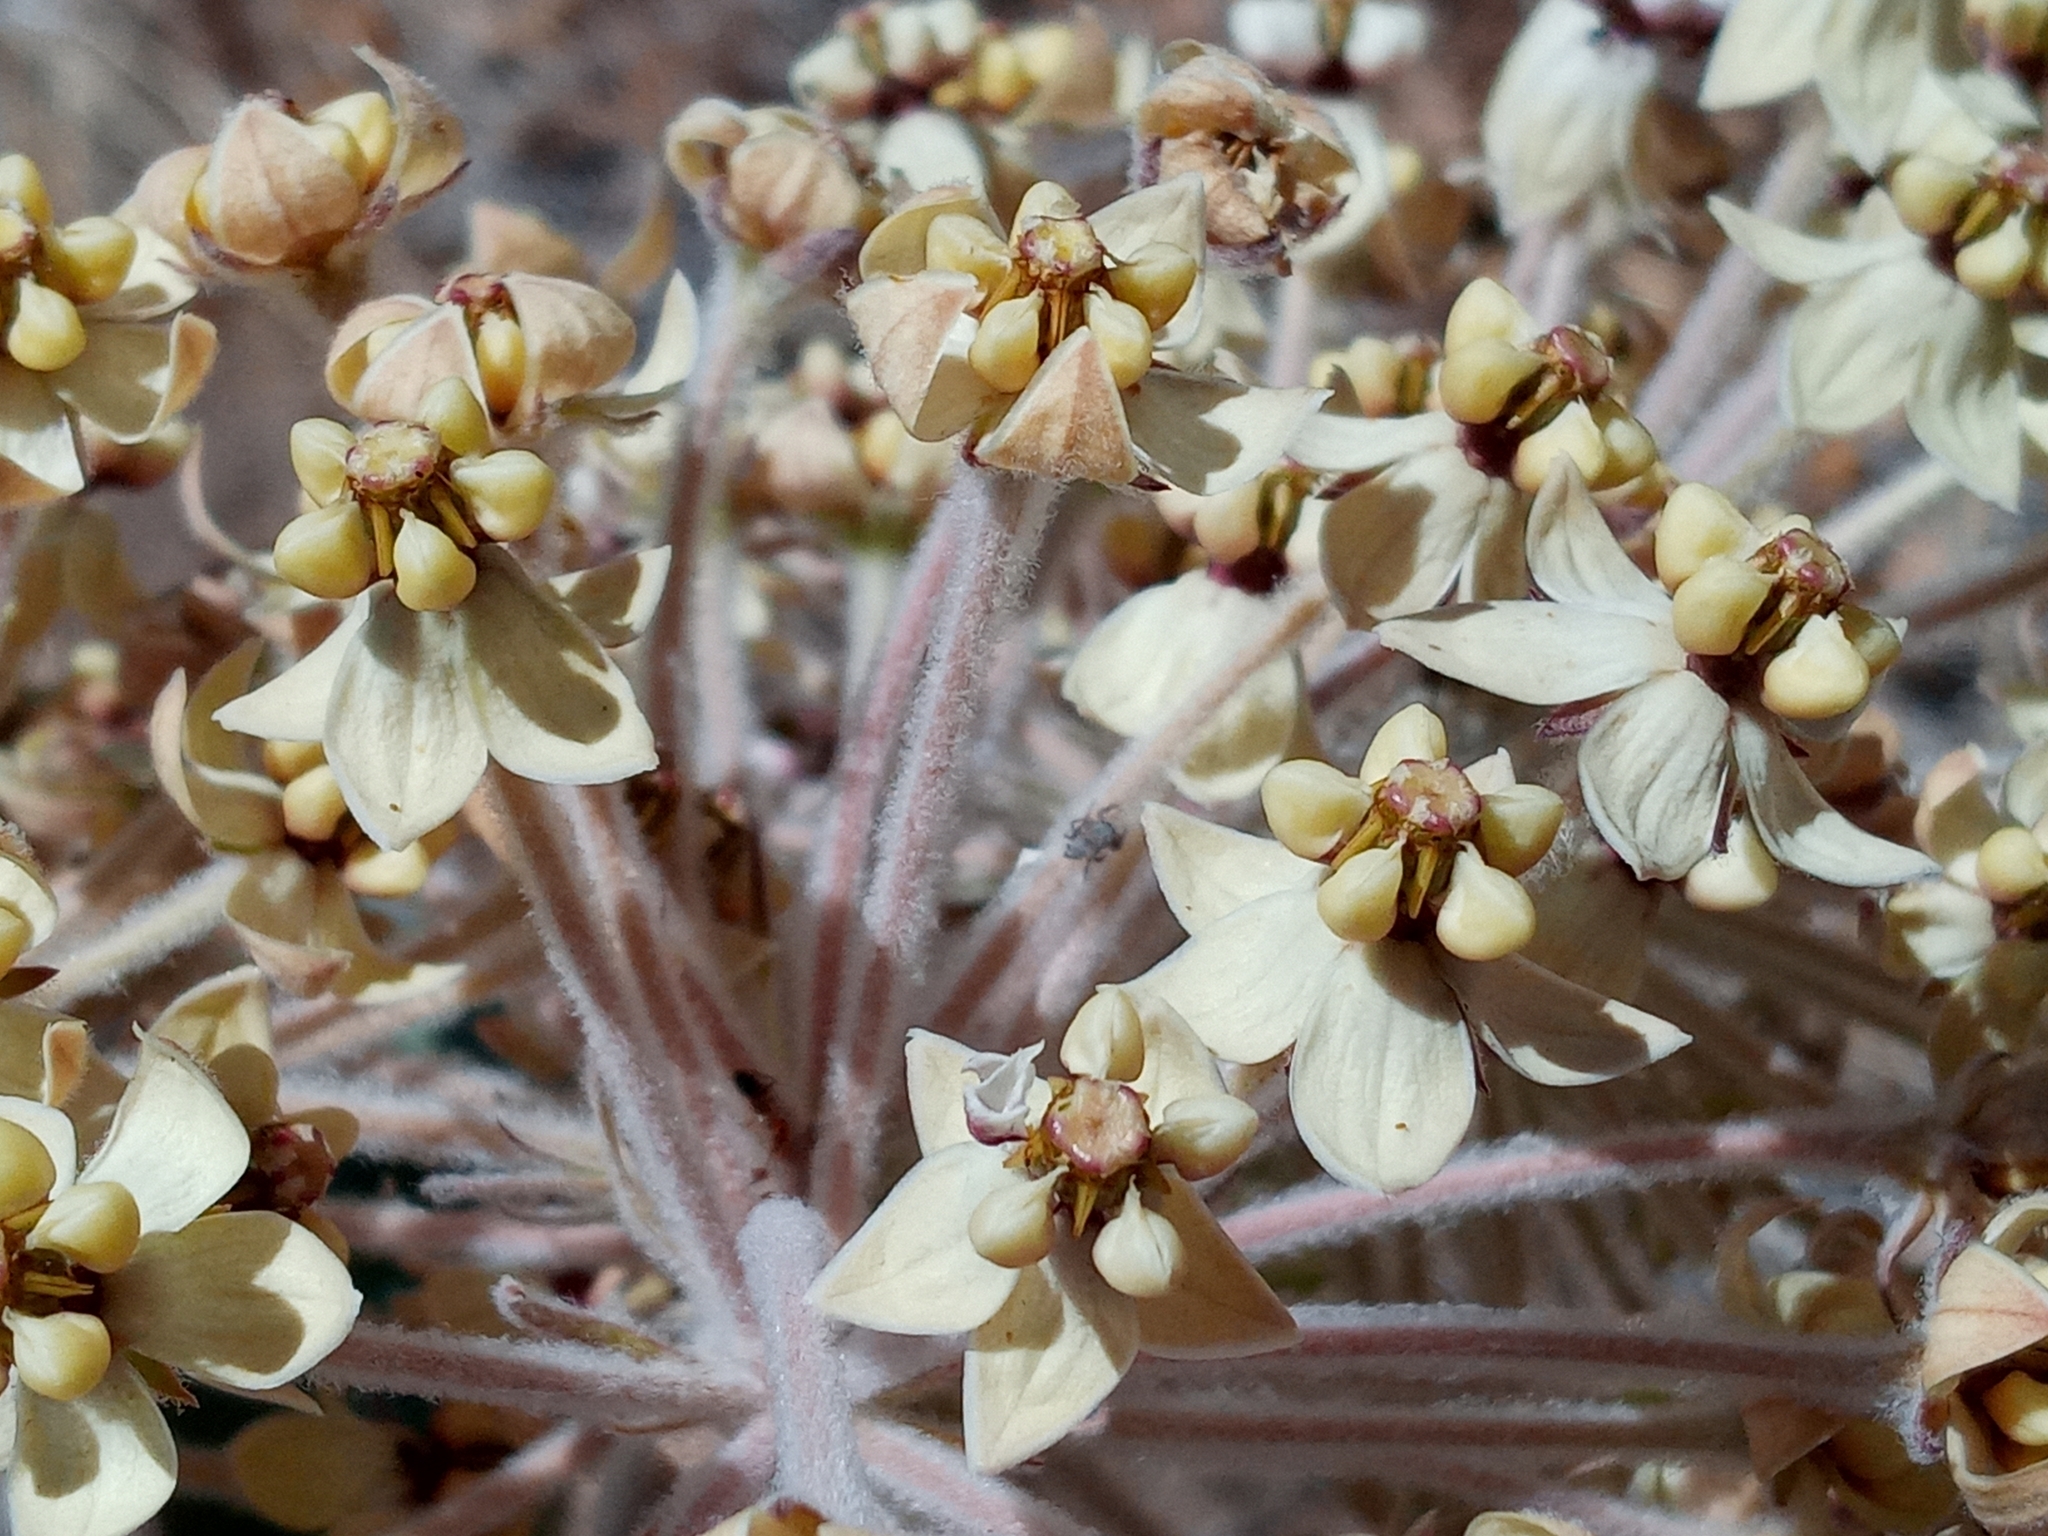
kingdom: Plantae
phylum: Tracheophyta
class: Magnoliopsida
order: Gentianales
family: Apocynaceae
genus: Asclepias
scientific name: Asclepias eriocarpa
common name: Indian milkweed
